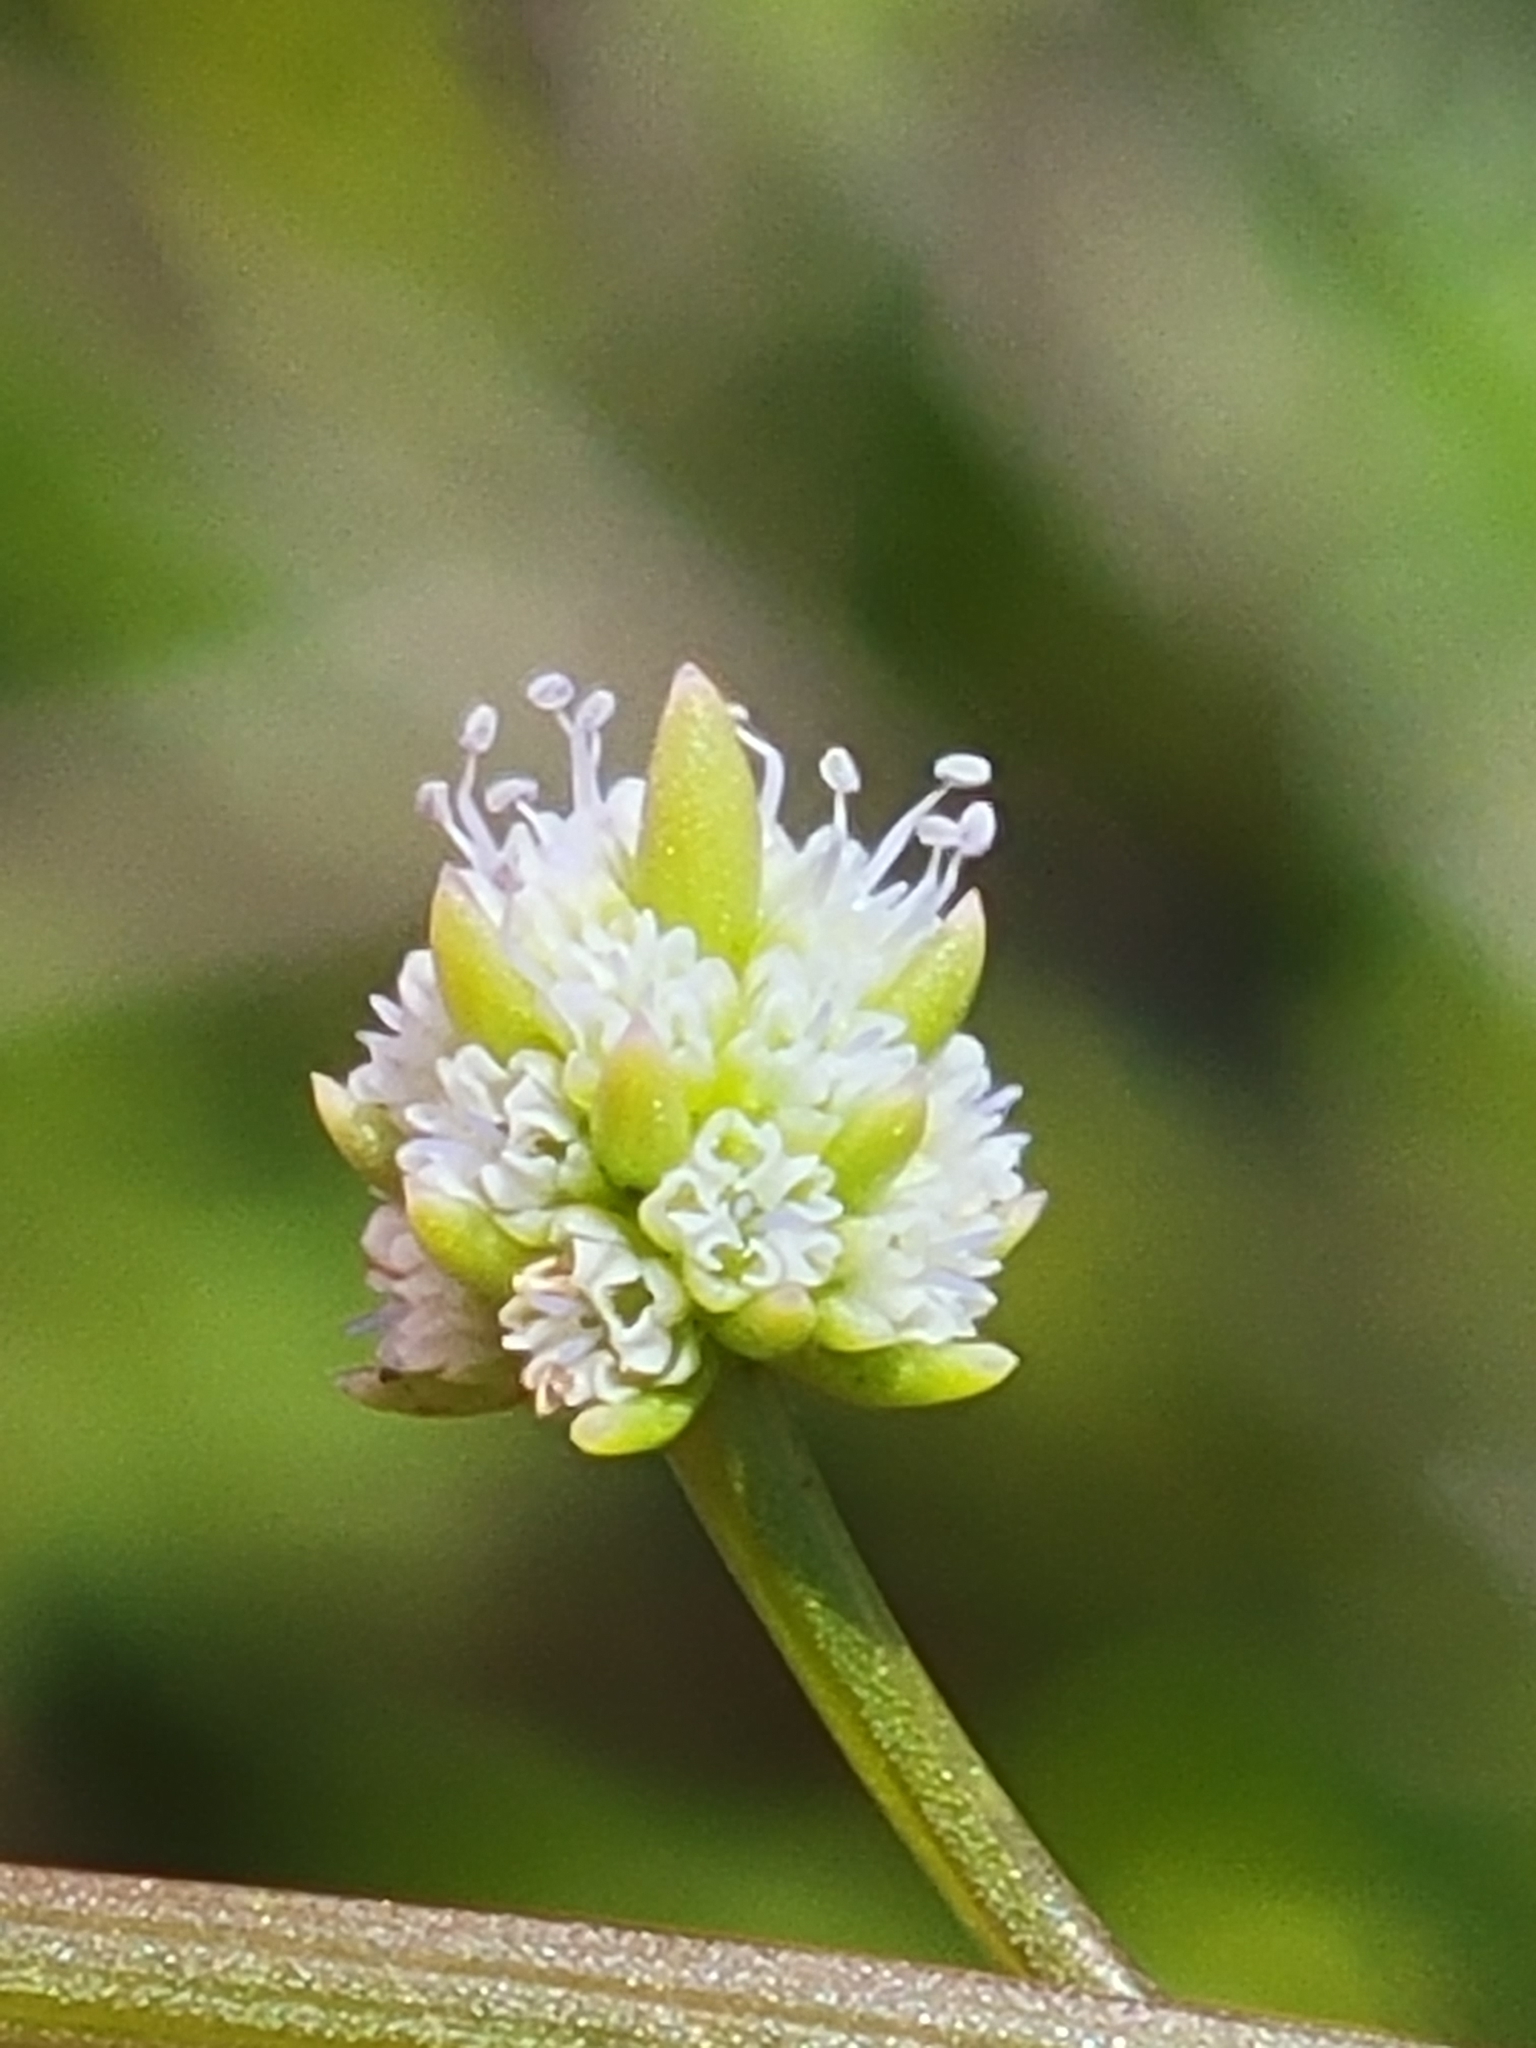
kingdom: Plantae
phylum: Tracheophyta
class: Magnoliopsida
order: Apiales
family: Apiaceae
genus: Eryngium
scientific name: Eryngium baldwinii
